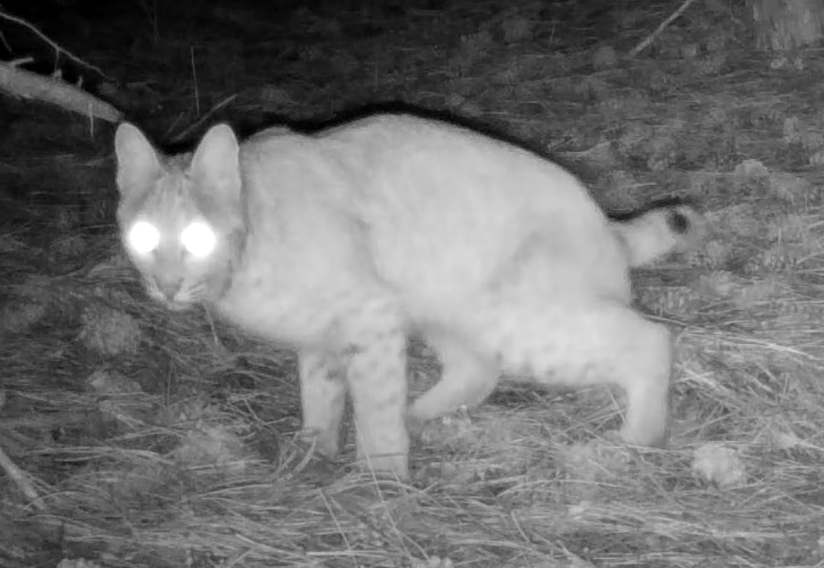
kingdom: Animalia
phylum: Chordata
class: Mammalia
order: Carnivora
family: Felidae
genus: Lynx
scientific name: Lynx rufus
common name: Bobcat
